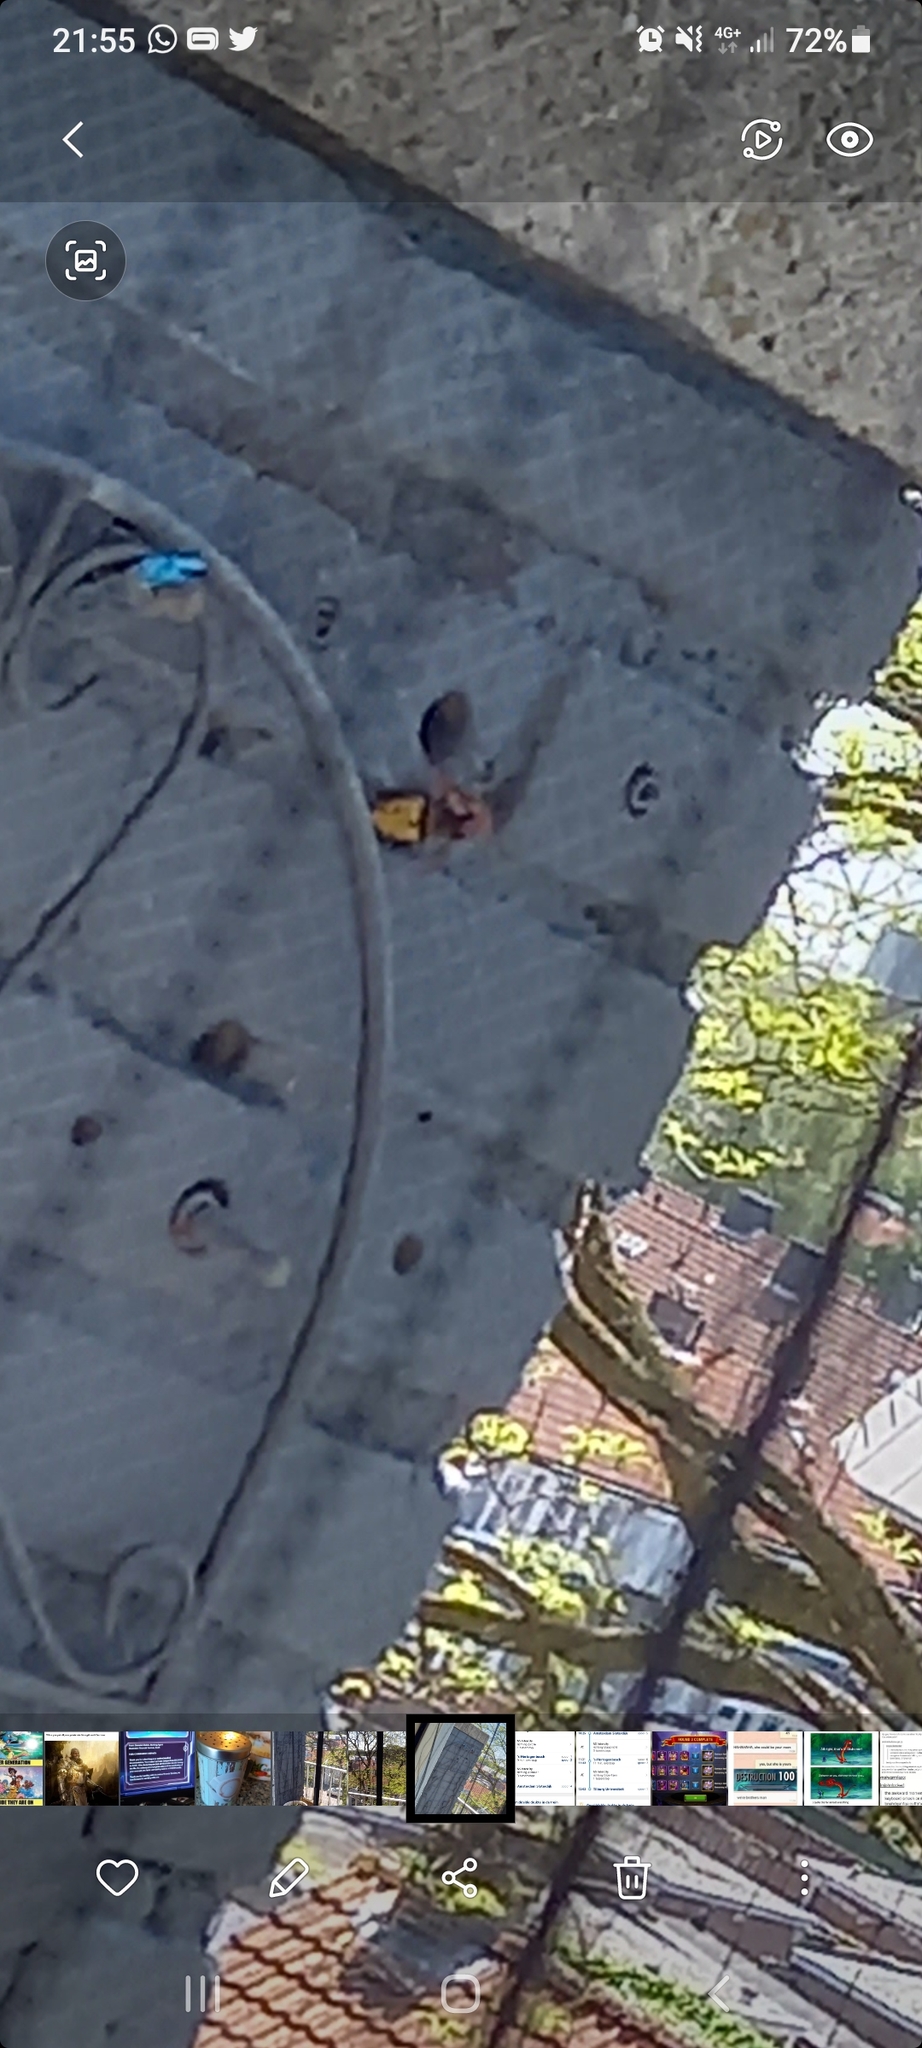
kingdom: Animalia
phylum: Arthropoda
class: Insecta
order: Hymenoptera
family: Vespidae
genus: Vespa
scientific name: Vespa crabro
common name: Hornet
